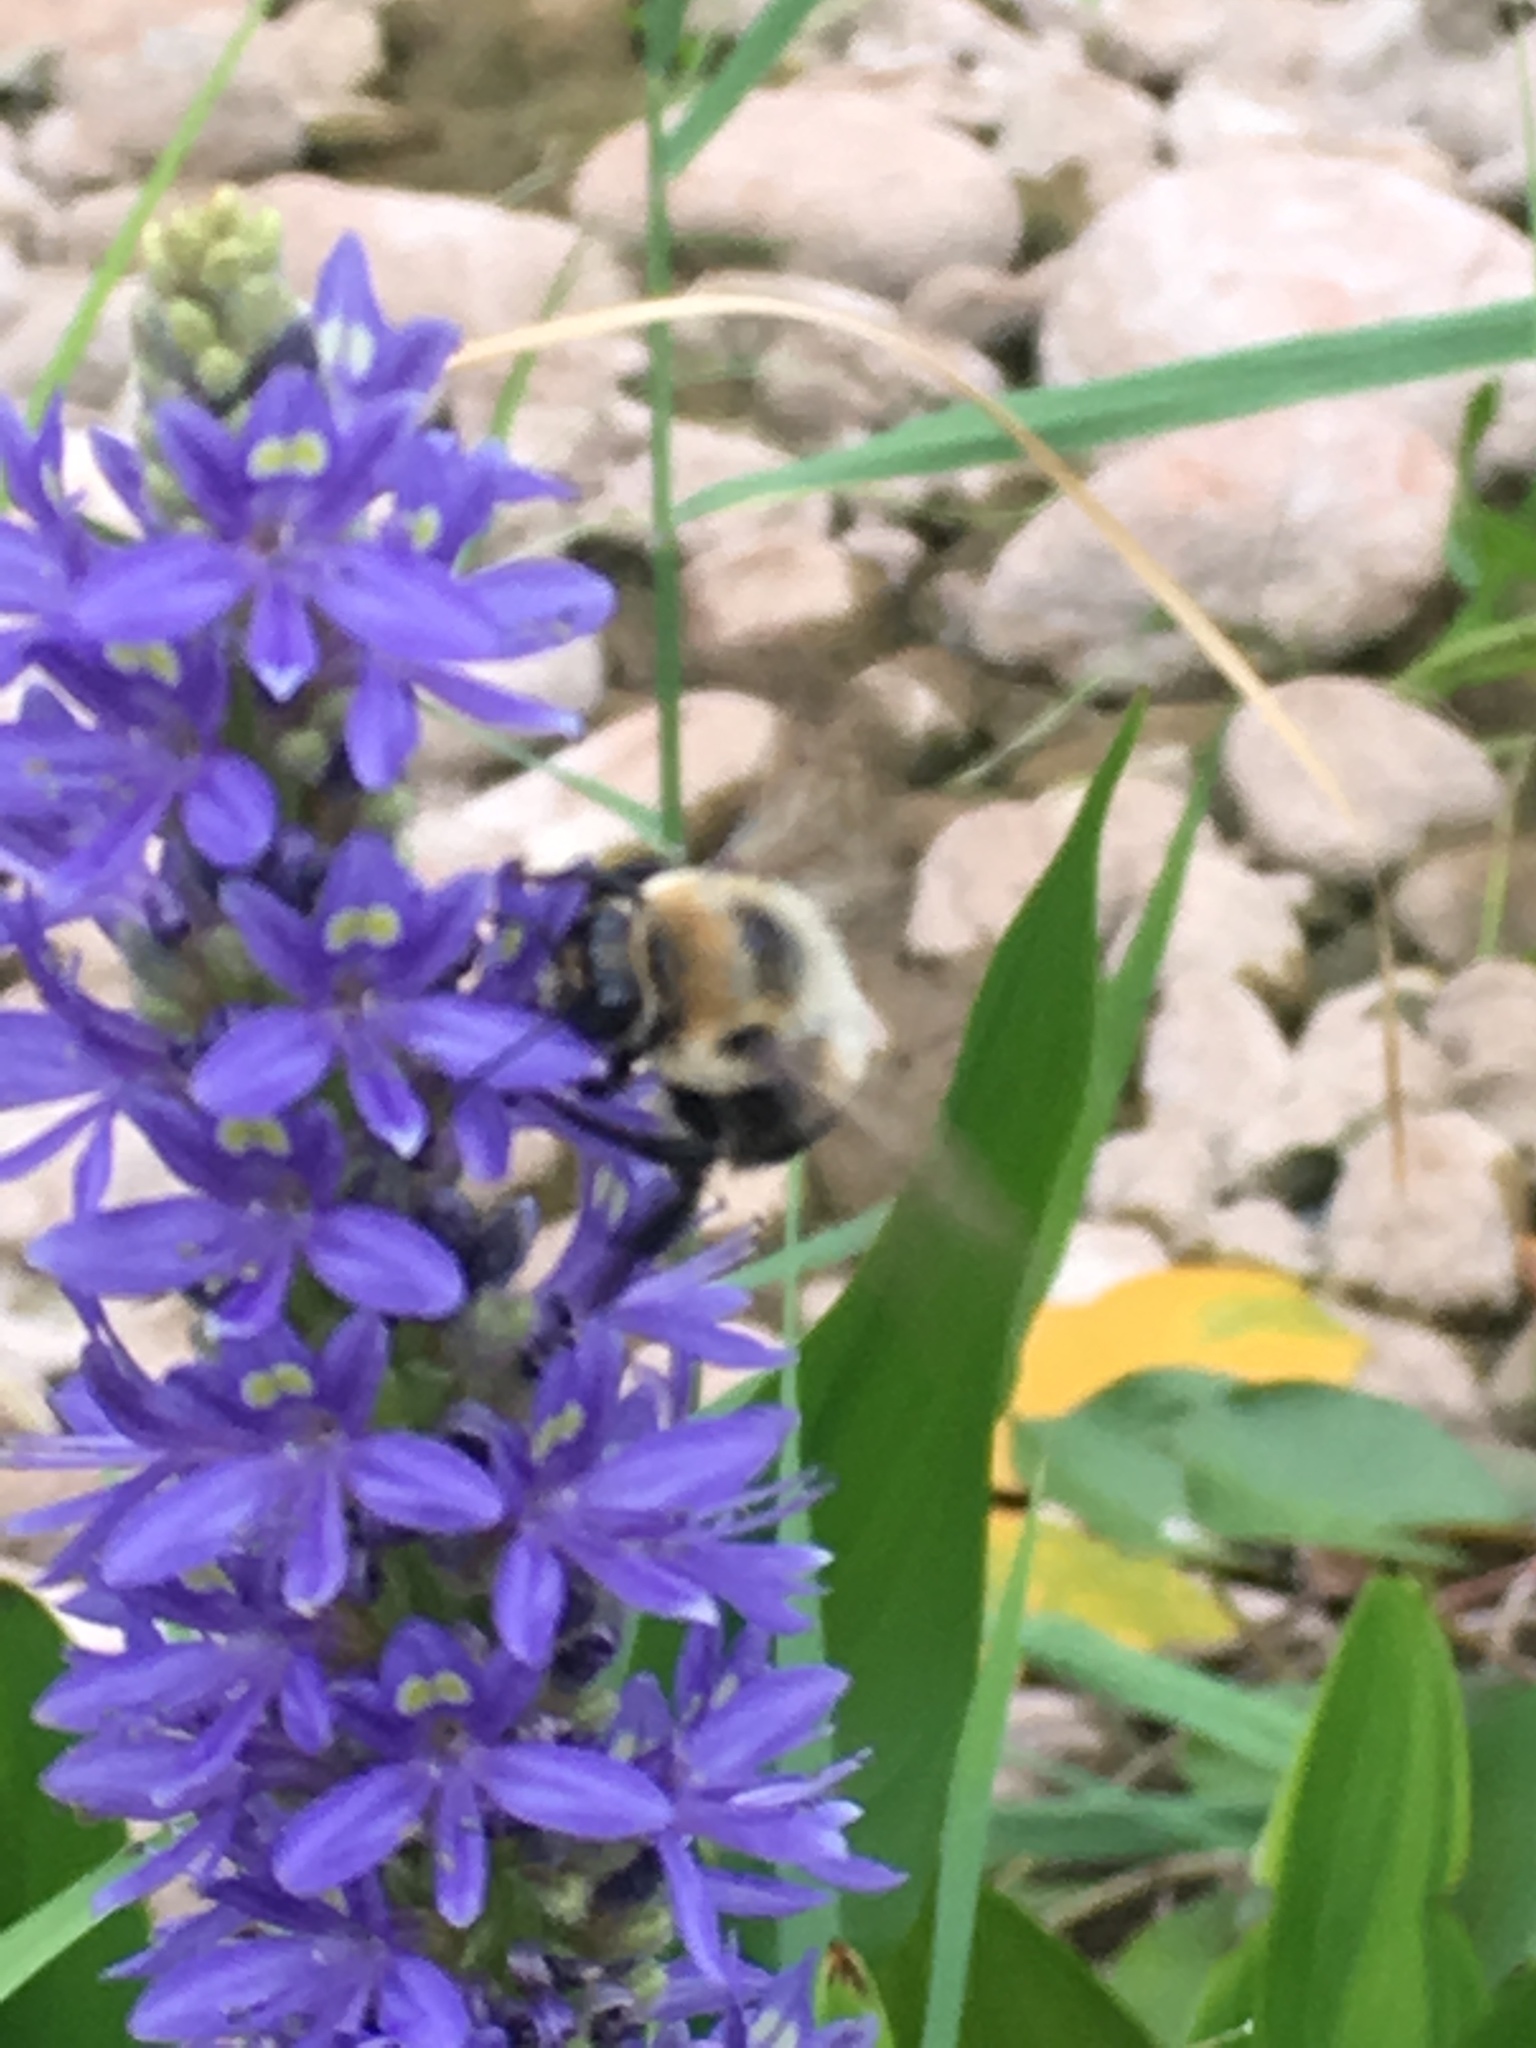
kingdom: Animalia
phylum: Arthropoda
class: Insecta
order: Hymenoptera
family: Apidae
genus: Bombus
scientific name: Bombus griseocollis
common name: Brown-belted bumble bee
